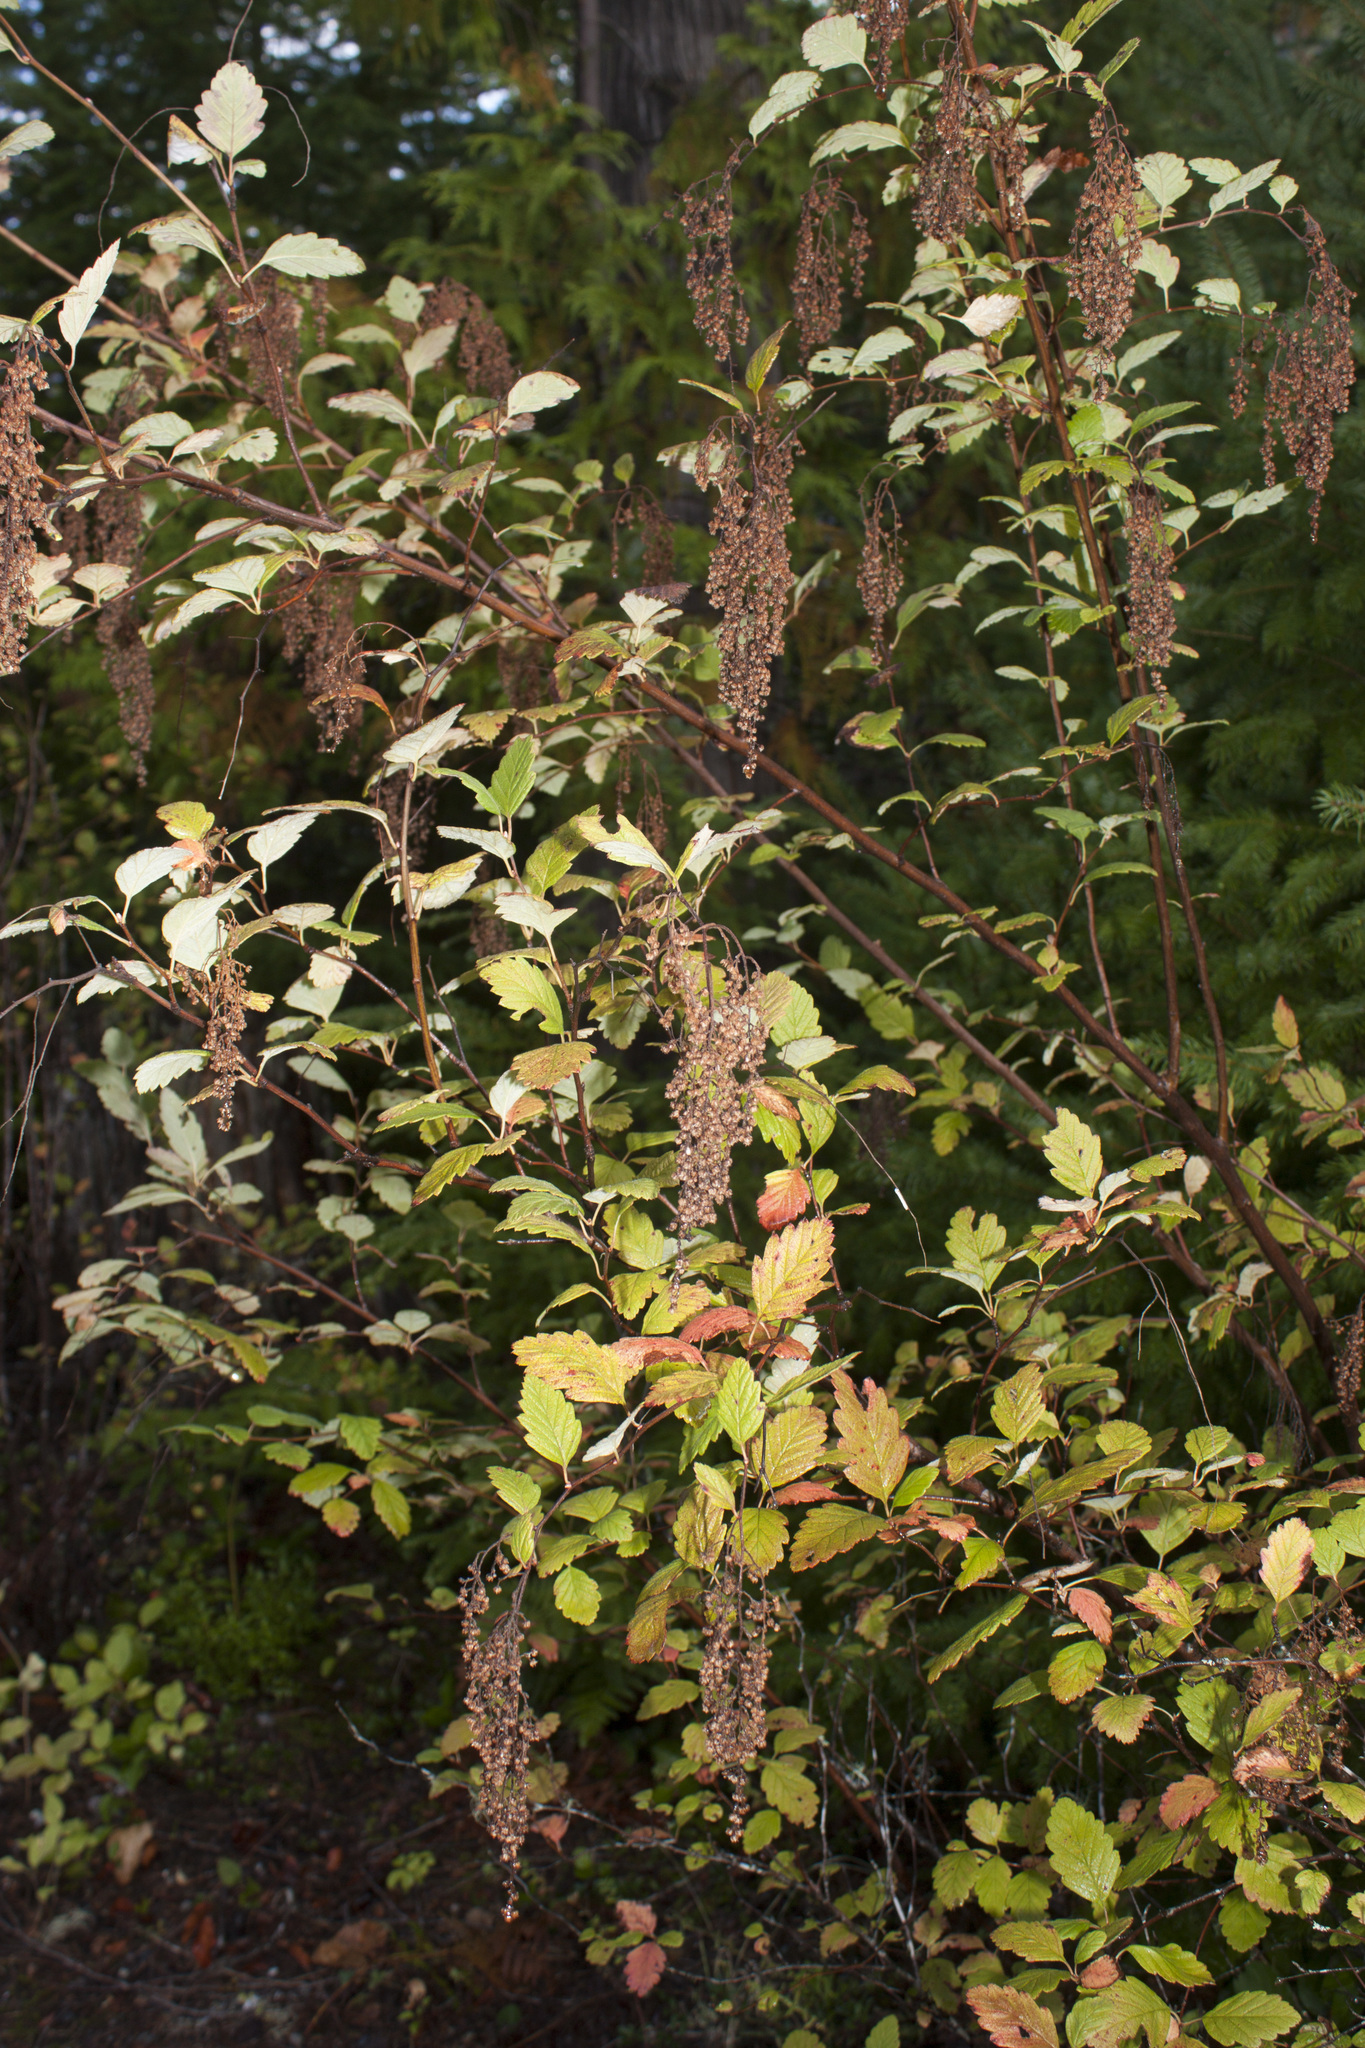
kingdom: Plantae
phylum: Tracheophyta
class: Magnoliopsida
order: Rosales
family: Rosaceae
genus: Holodiscus
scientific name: Holodiscus discolor
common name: Oceanspray
